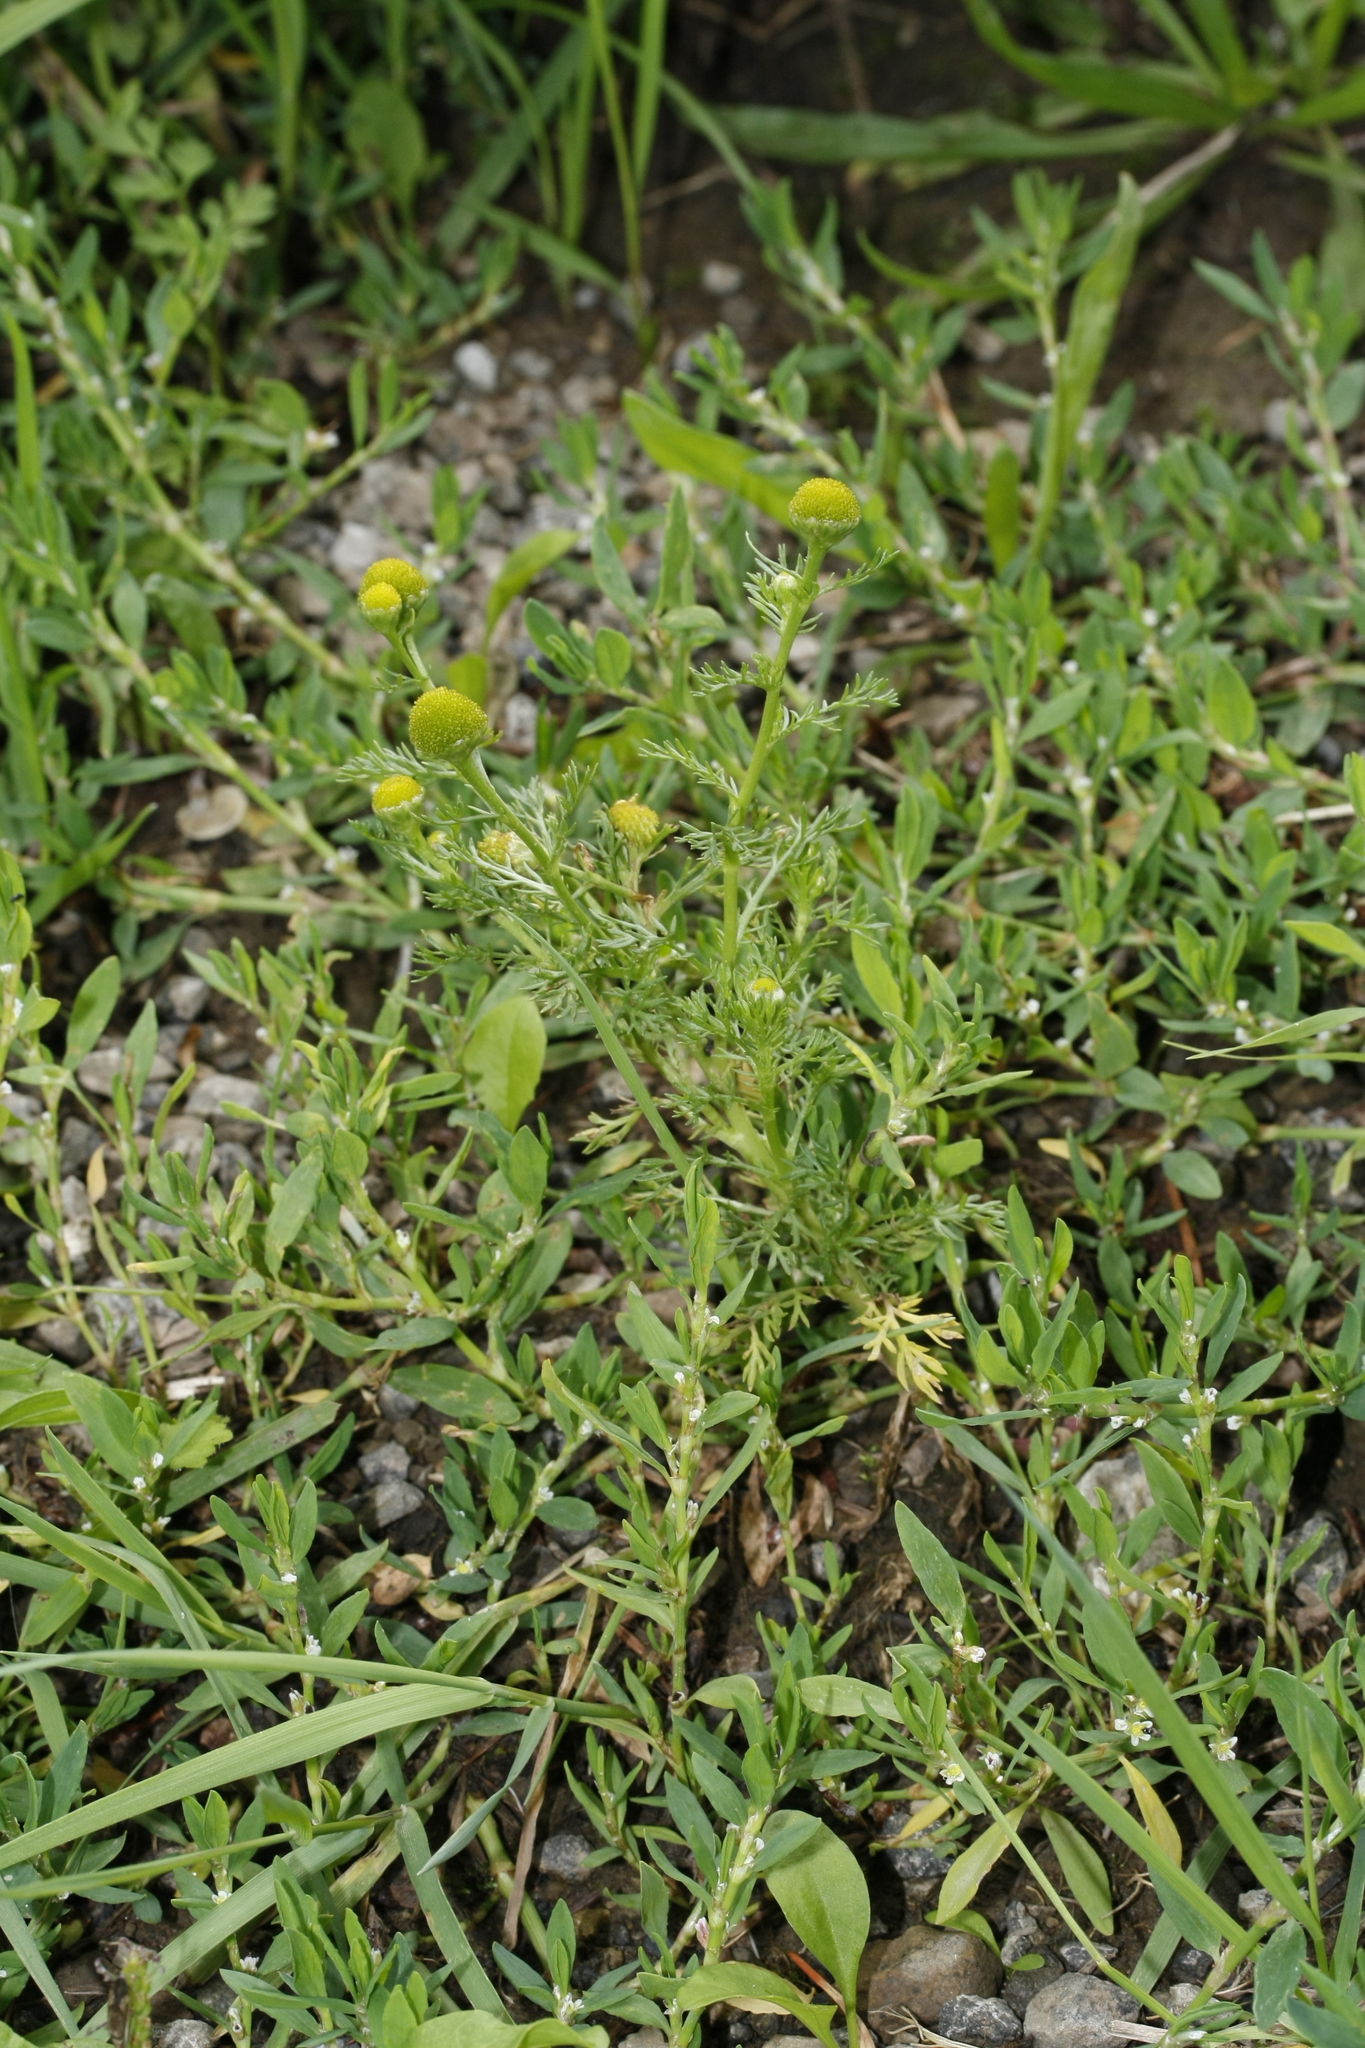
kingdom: Plantae
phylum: Tracheophyta
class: Magnoliopsida
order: Asterales
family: Asteraceae
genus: Matricaria
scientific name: Matricaria discoidea
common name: Disc mayweed
